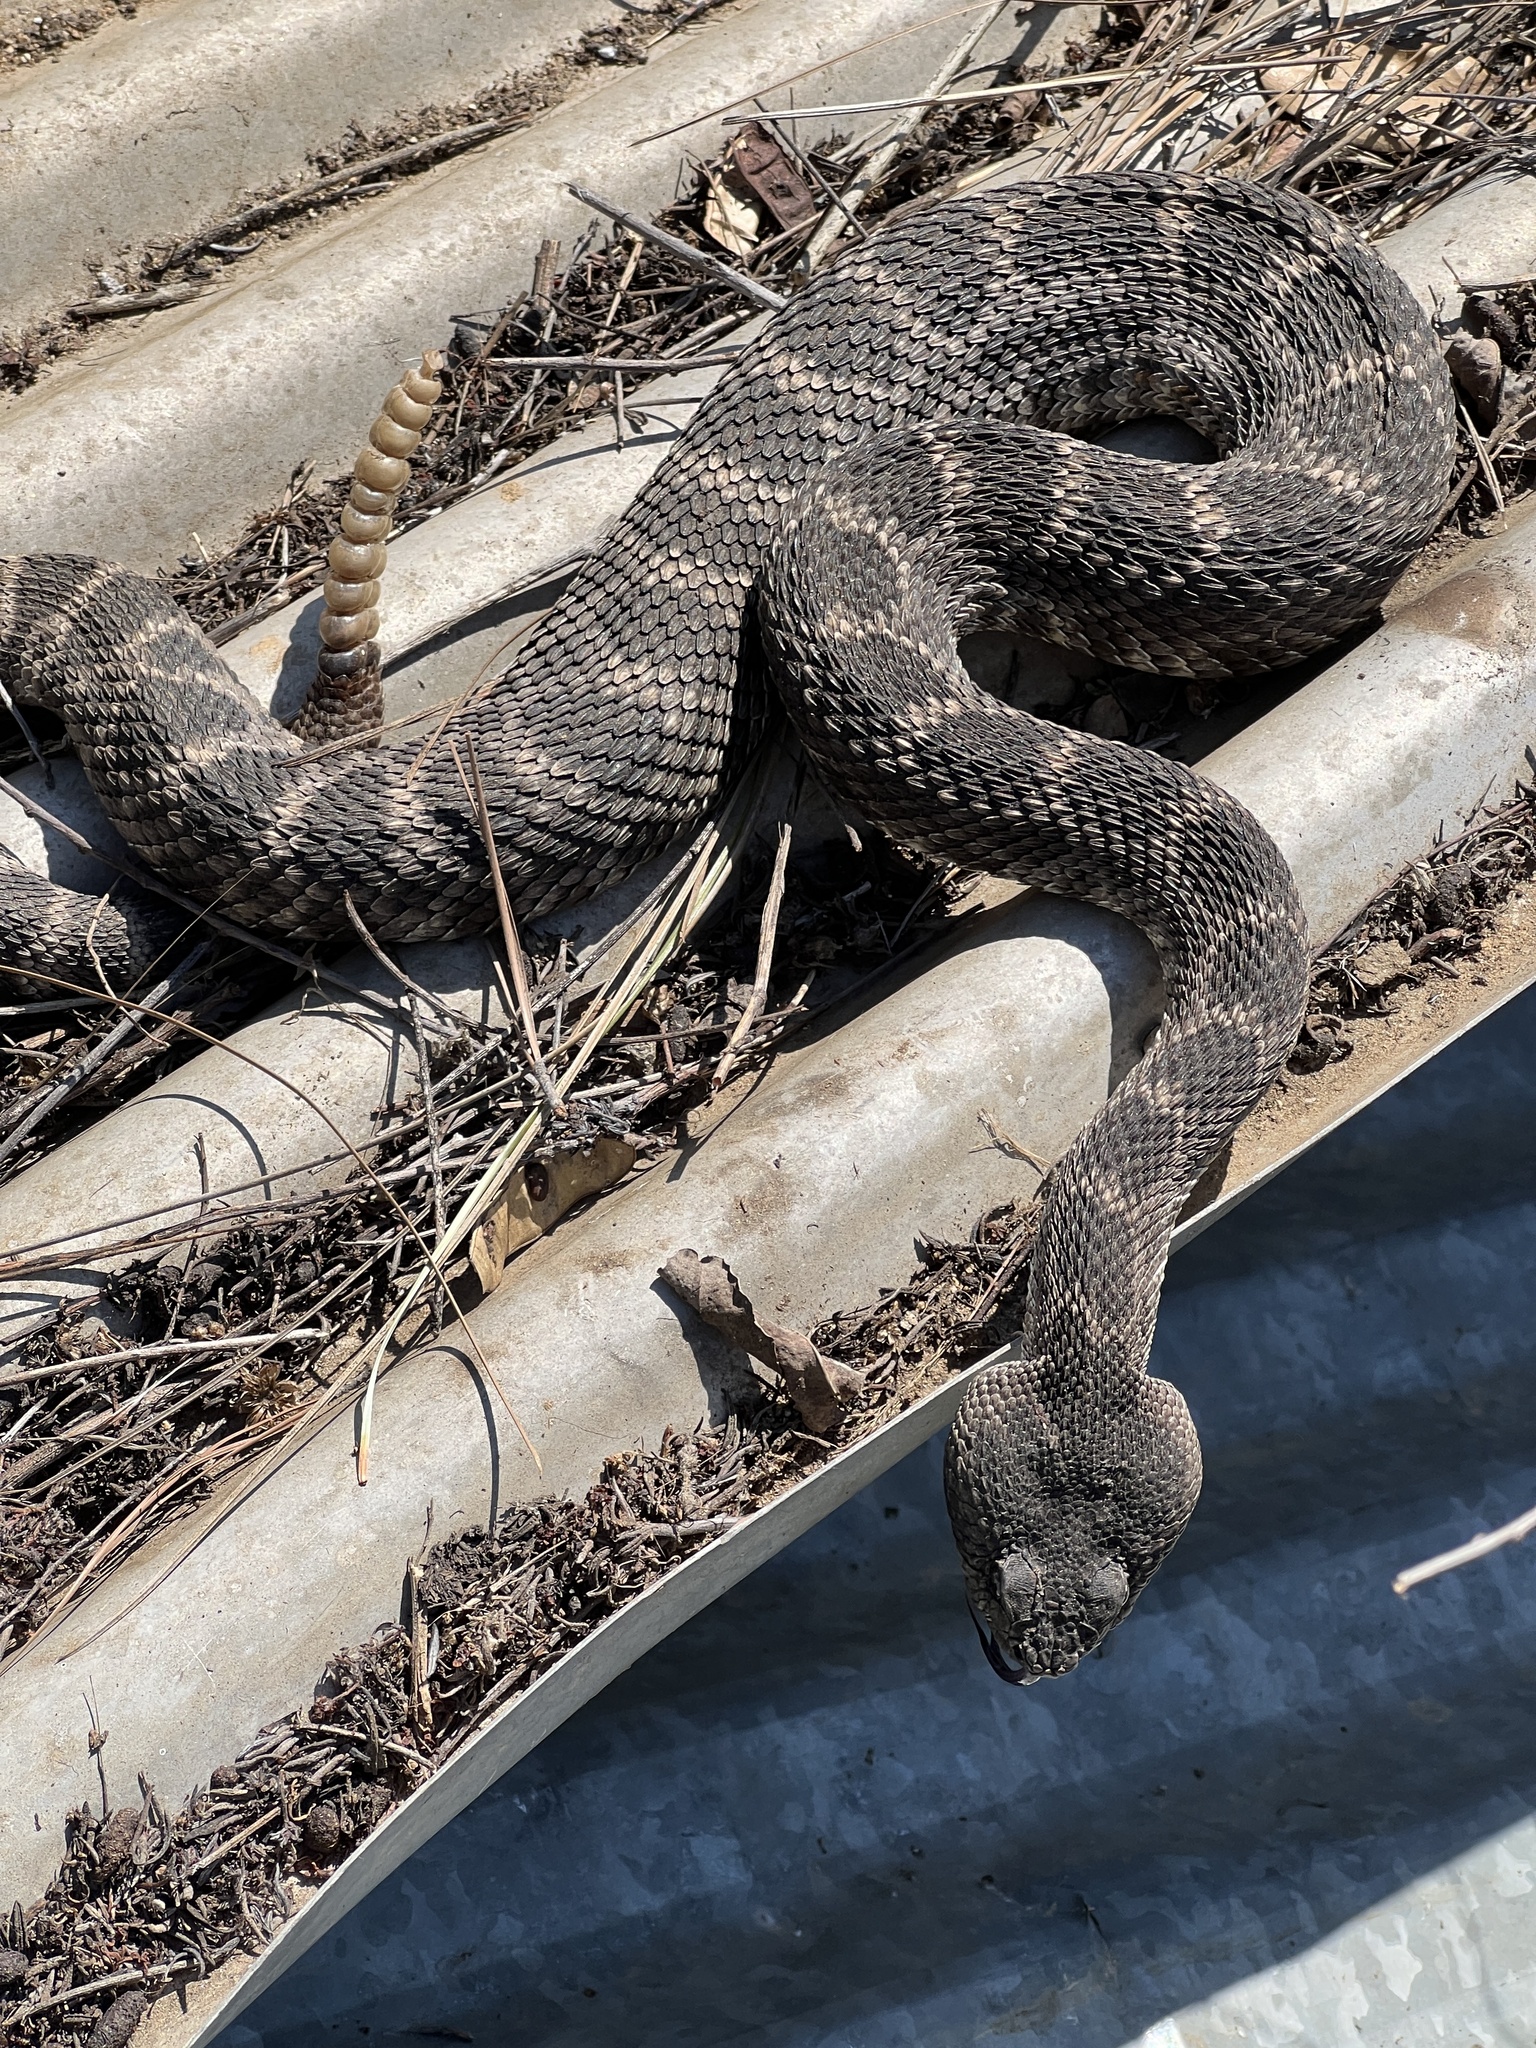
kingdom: Animalia
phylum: Chordata
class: Squamata
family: Viperidae
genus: Crotalus
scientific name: Crotalus oreganus
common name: Abyssus
